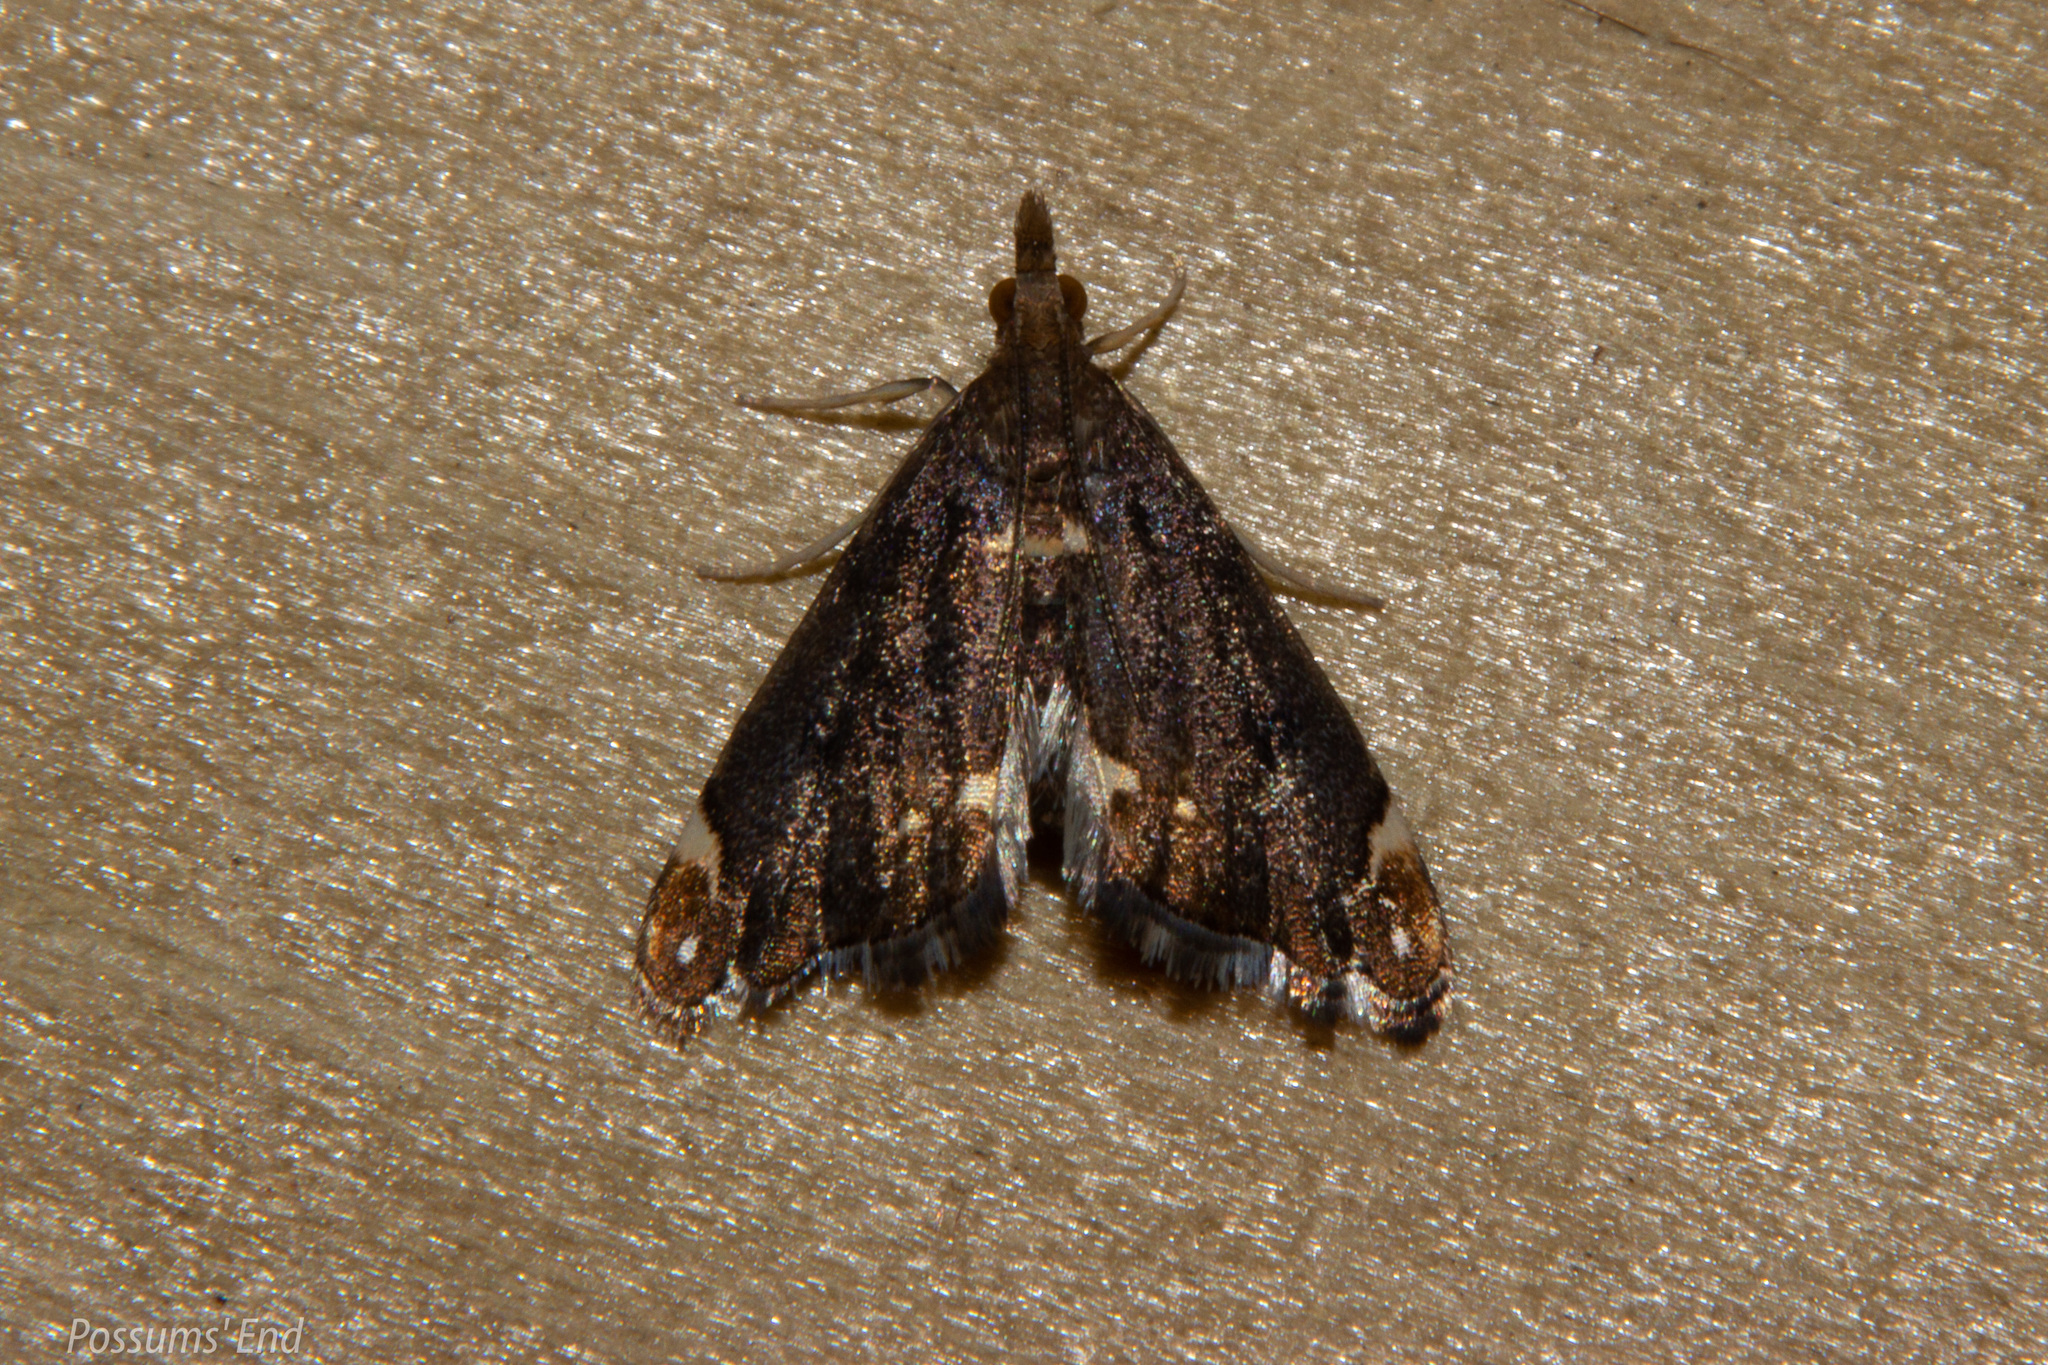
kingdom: Animalia
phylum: Arthropoda
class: Insecta
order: Lepidoptera
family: Crambidae
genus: Glaucocharis
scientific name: Glaucocharis pyrsophanes
